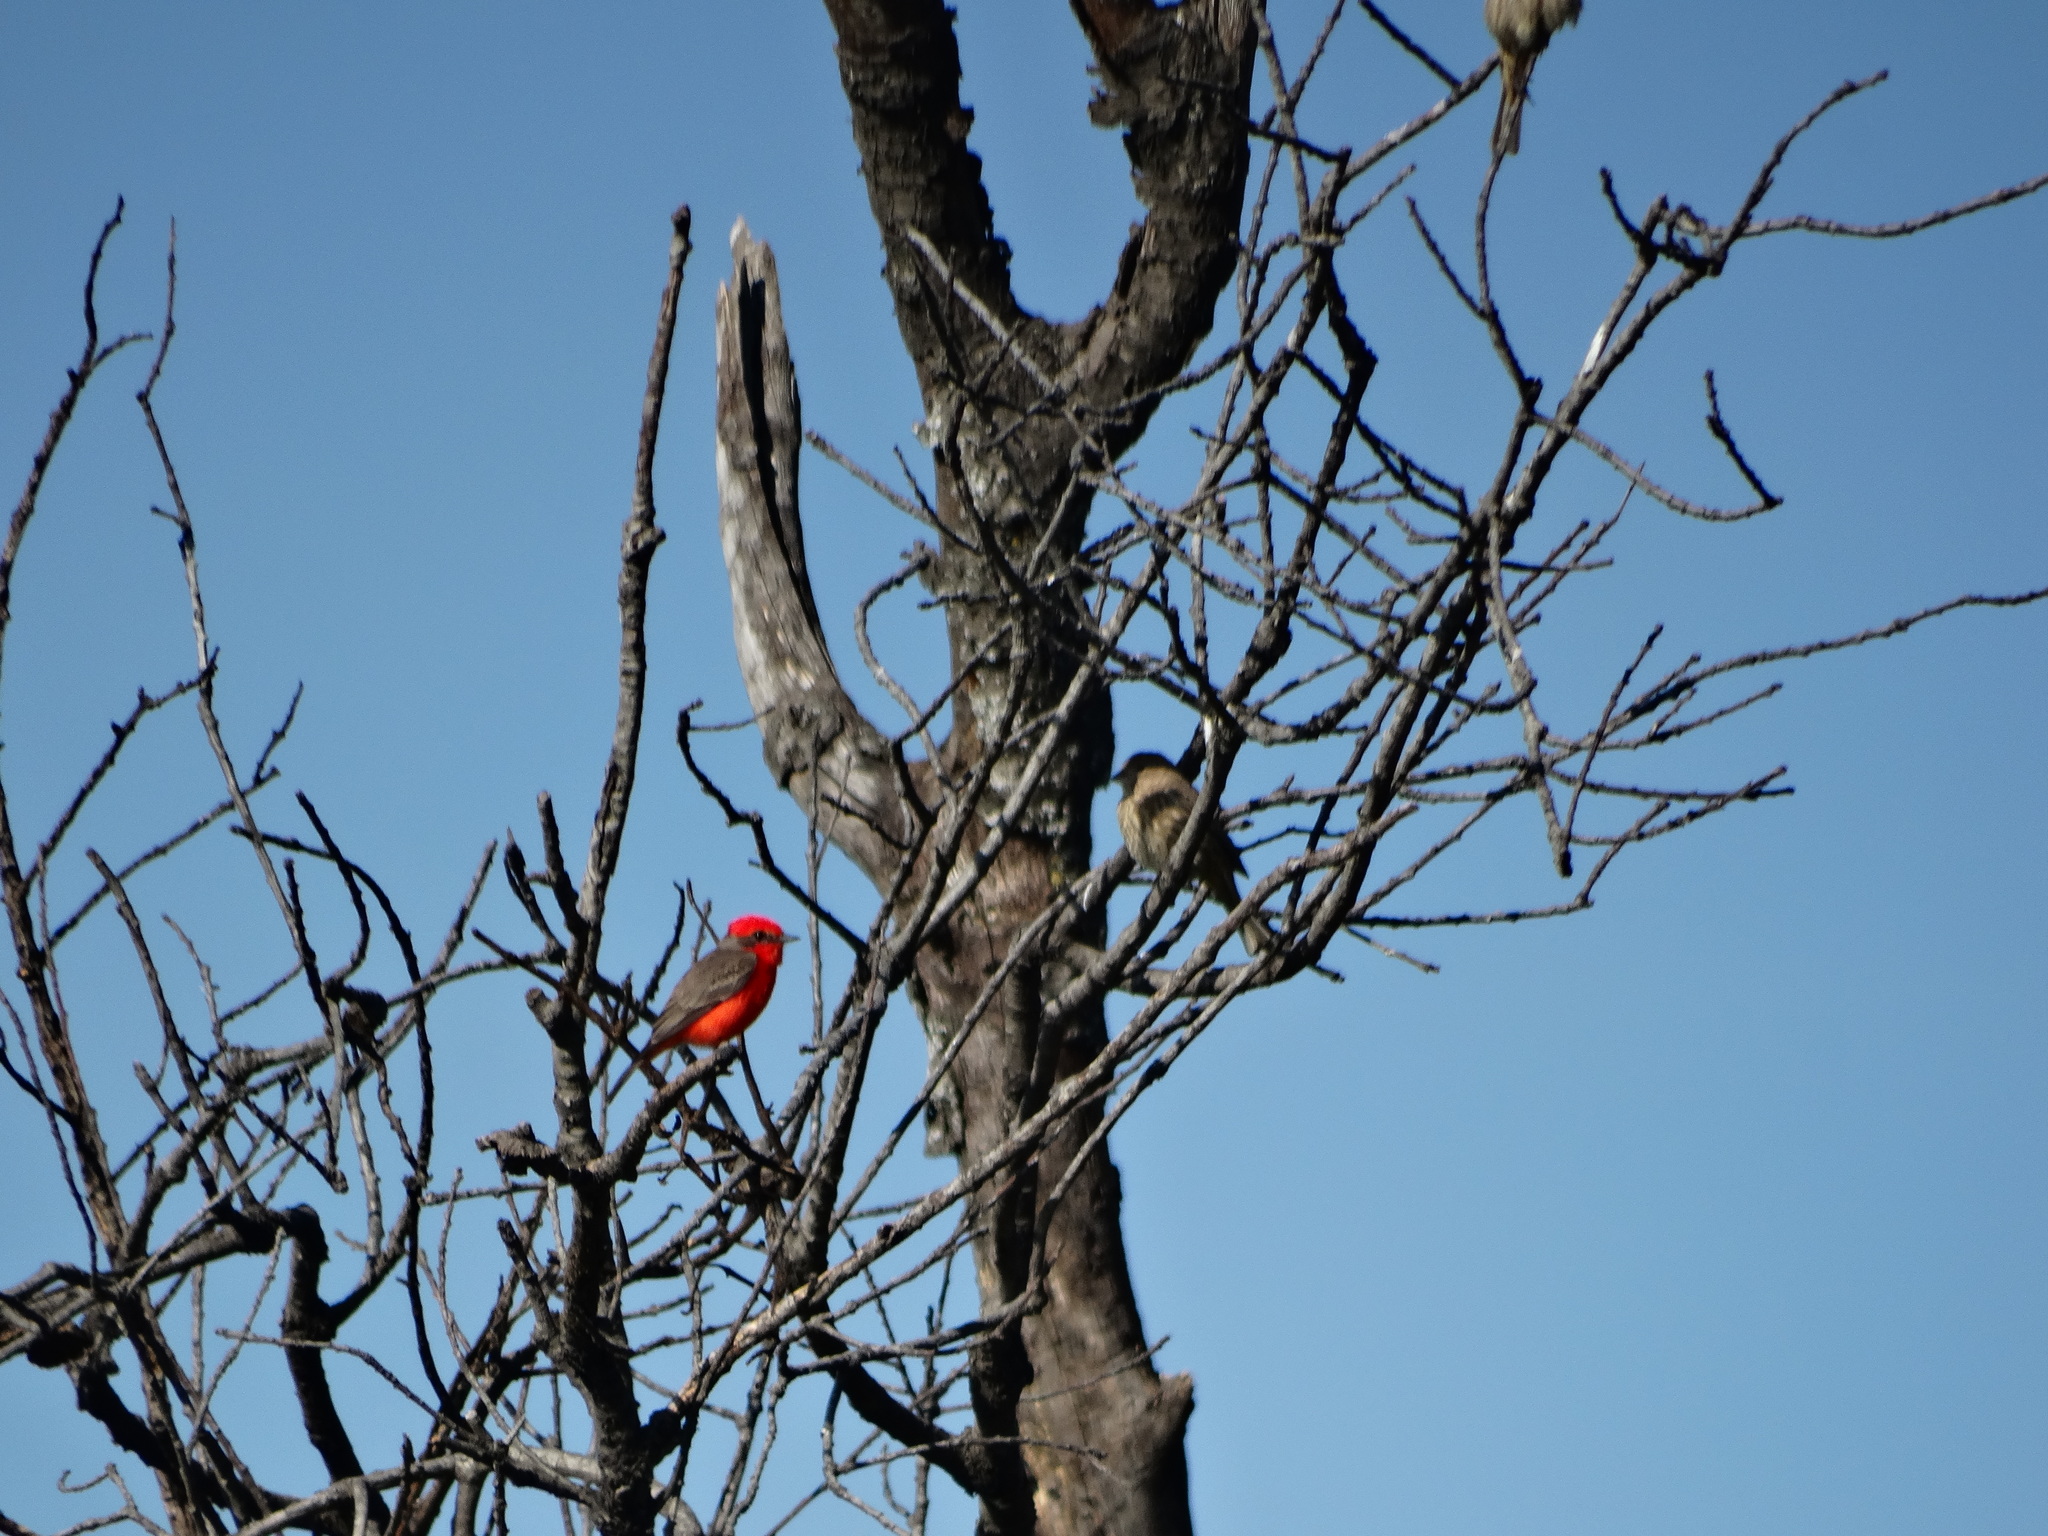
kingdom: Animalia
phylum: Chordata
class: Aves
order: Passeriformes
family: Tyrannidae
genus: Pyrocephalus
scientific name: Pyrocephalus rubinus
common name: Vermilion flycatcher
